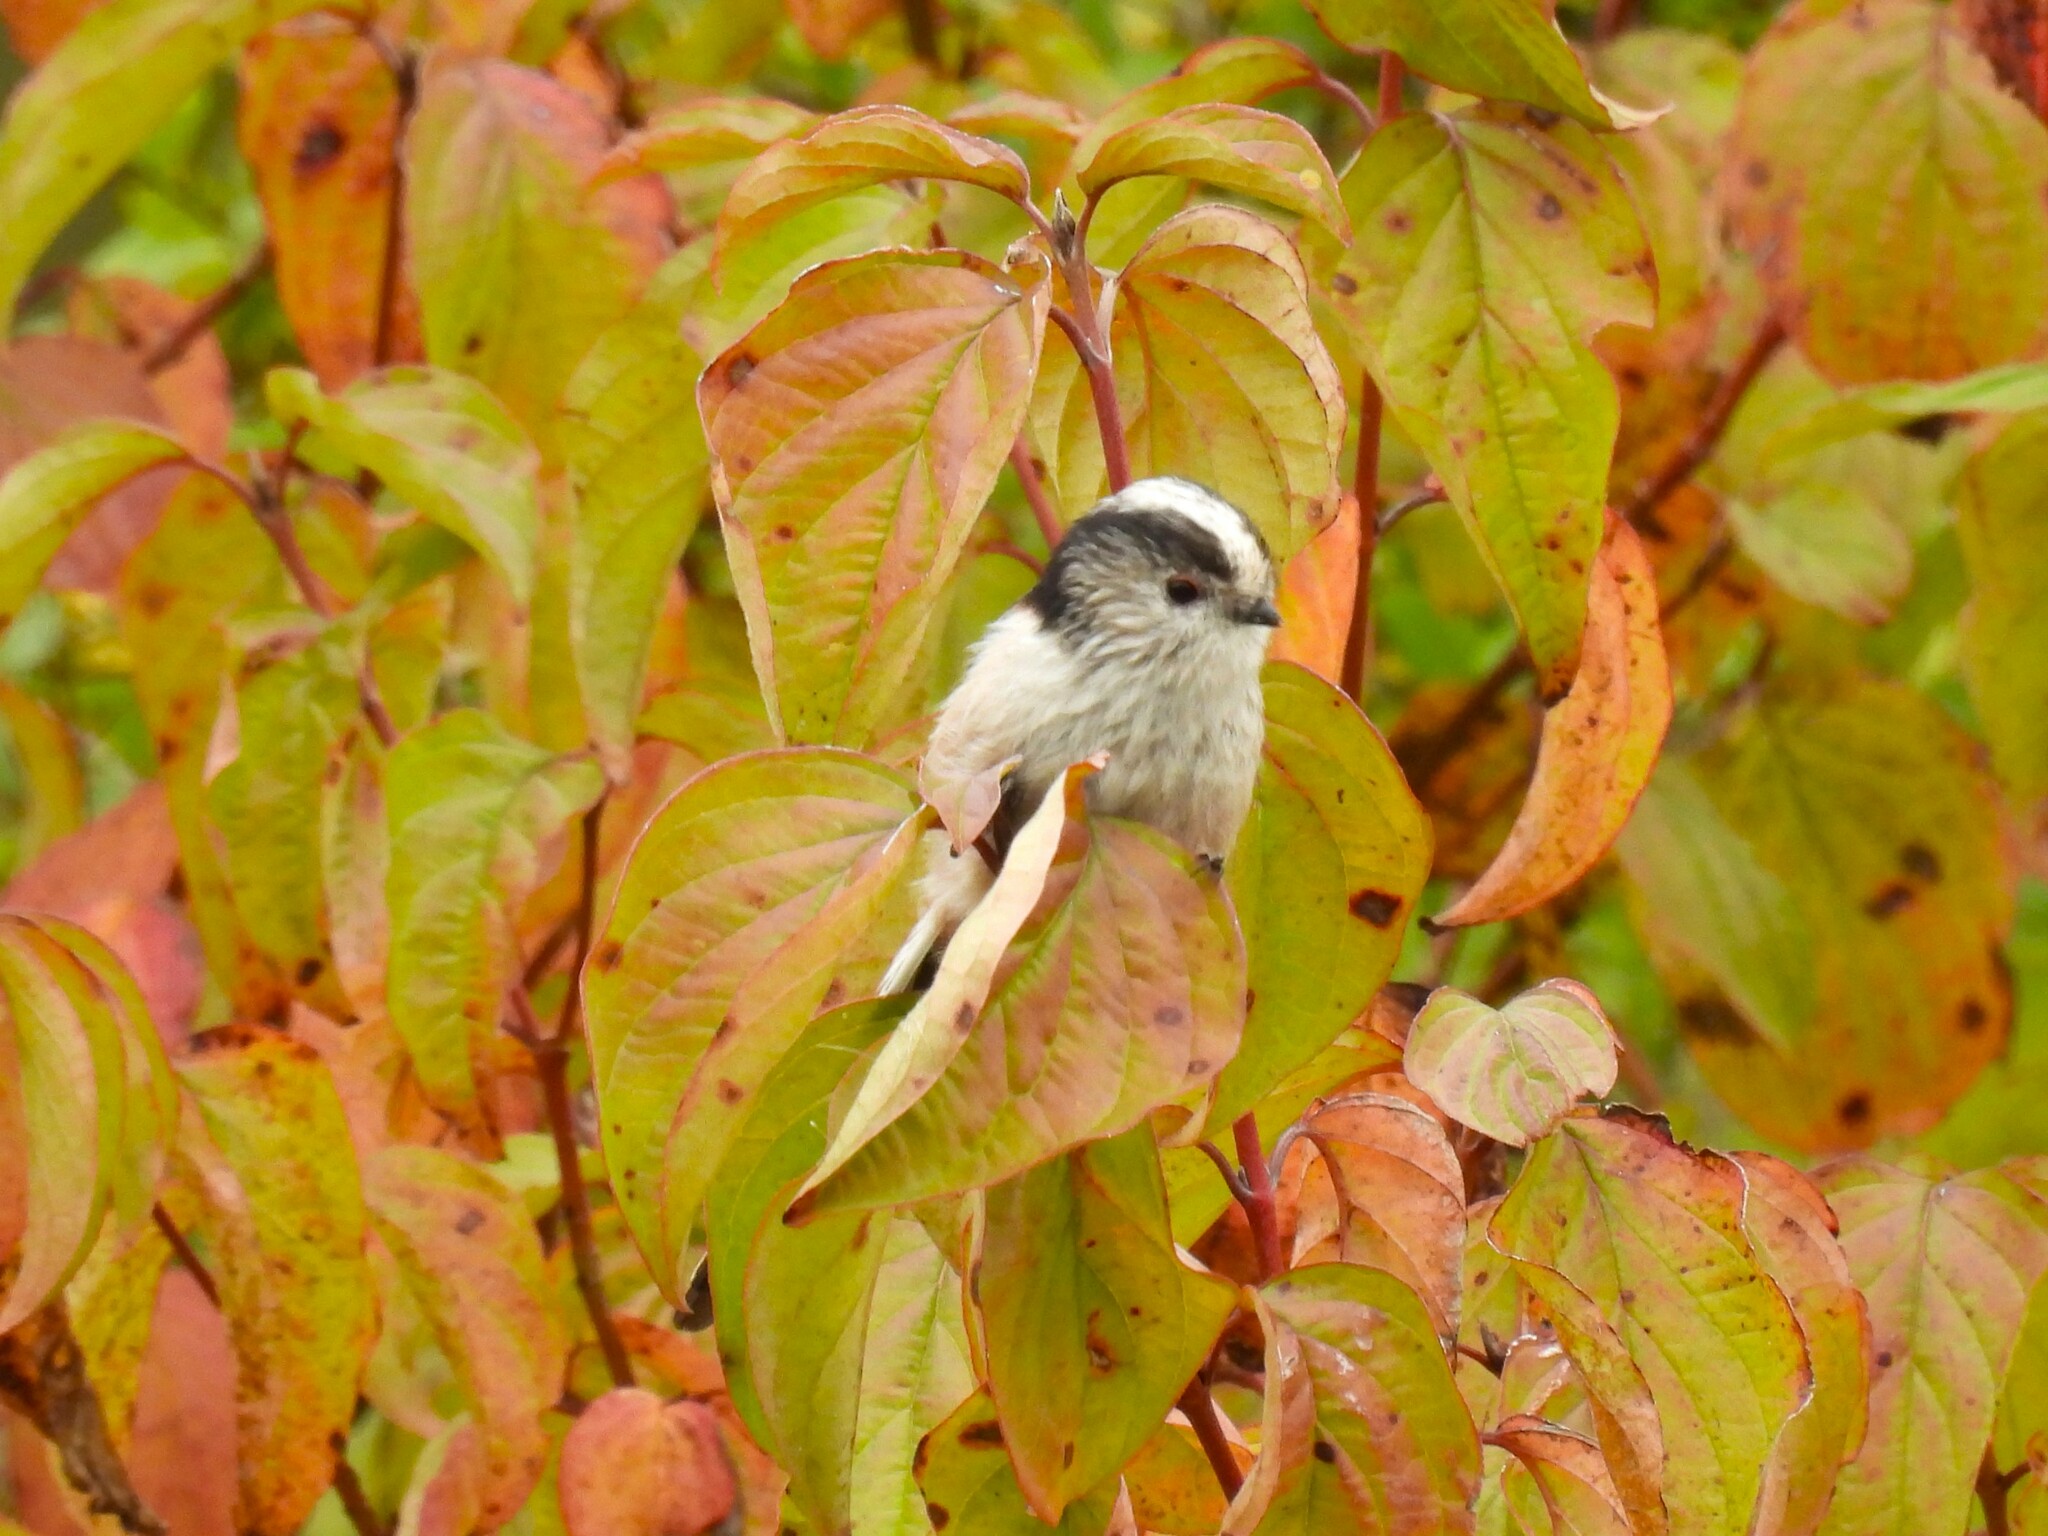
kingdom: Animalia
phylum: Chordata
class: Aves
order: Passeriformes
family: Aegithalidae
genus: Aegithalos
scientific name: Aegithalos caudatus
